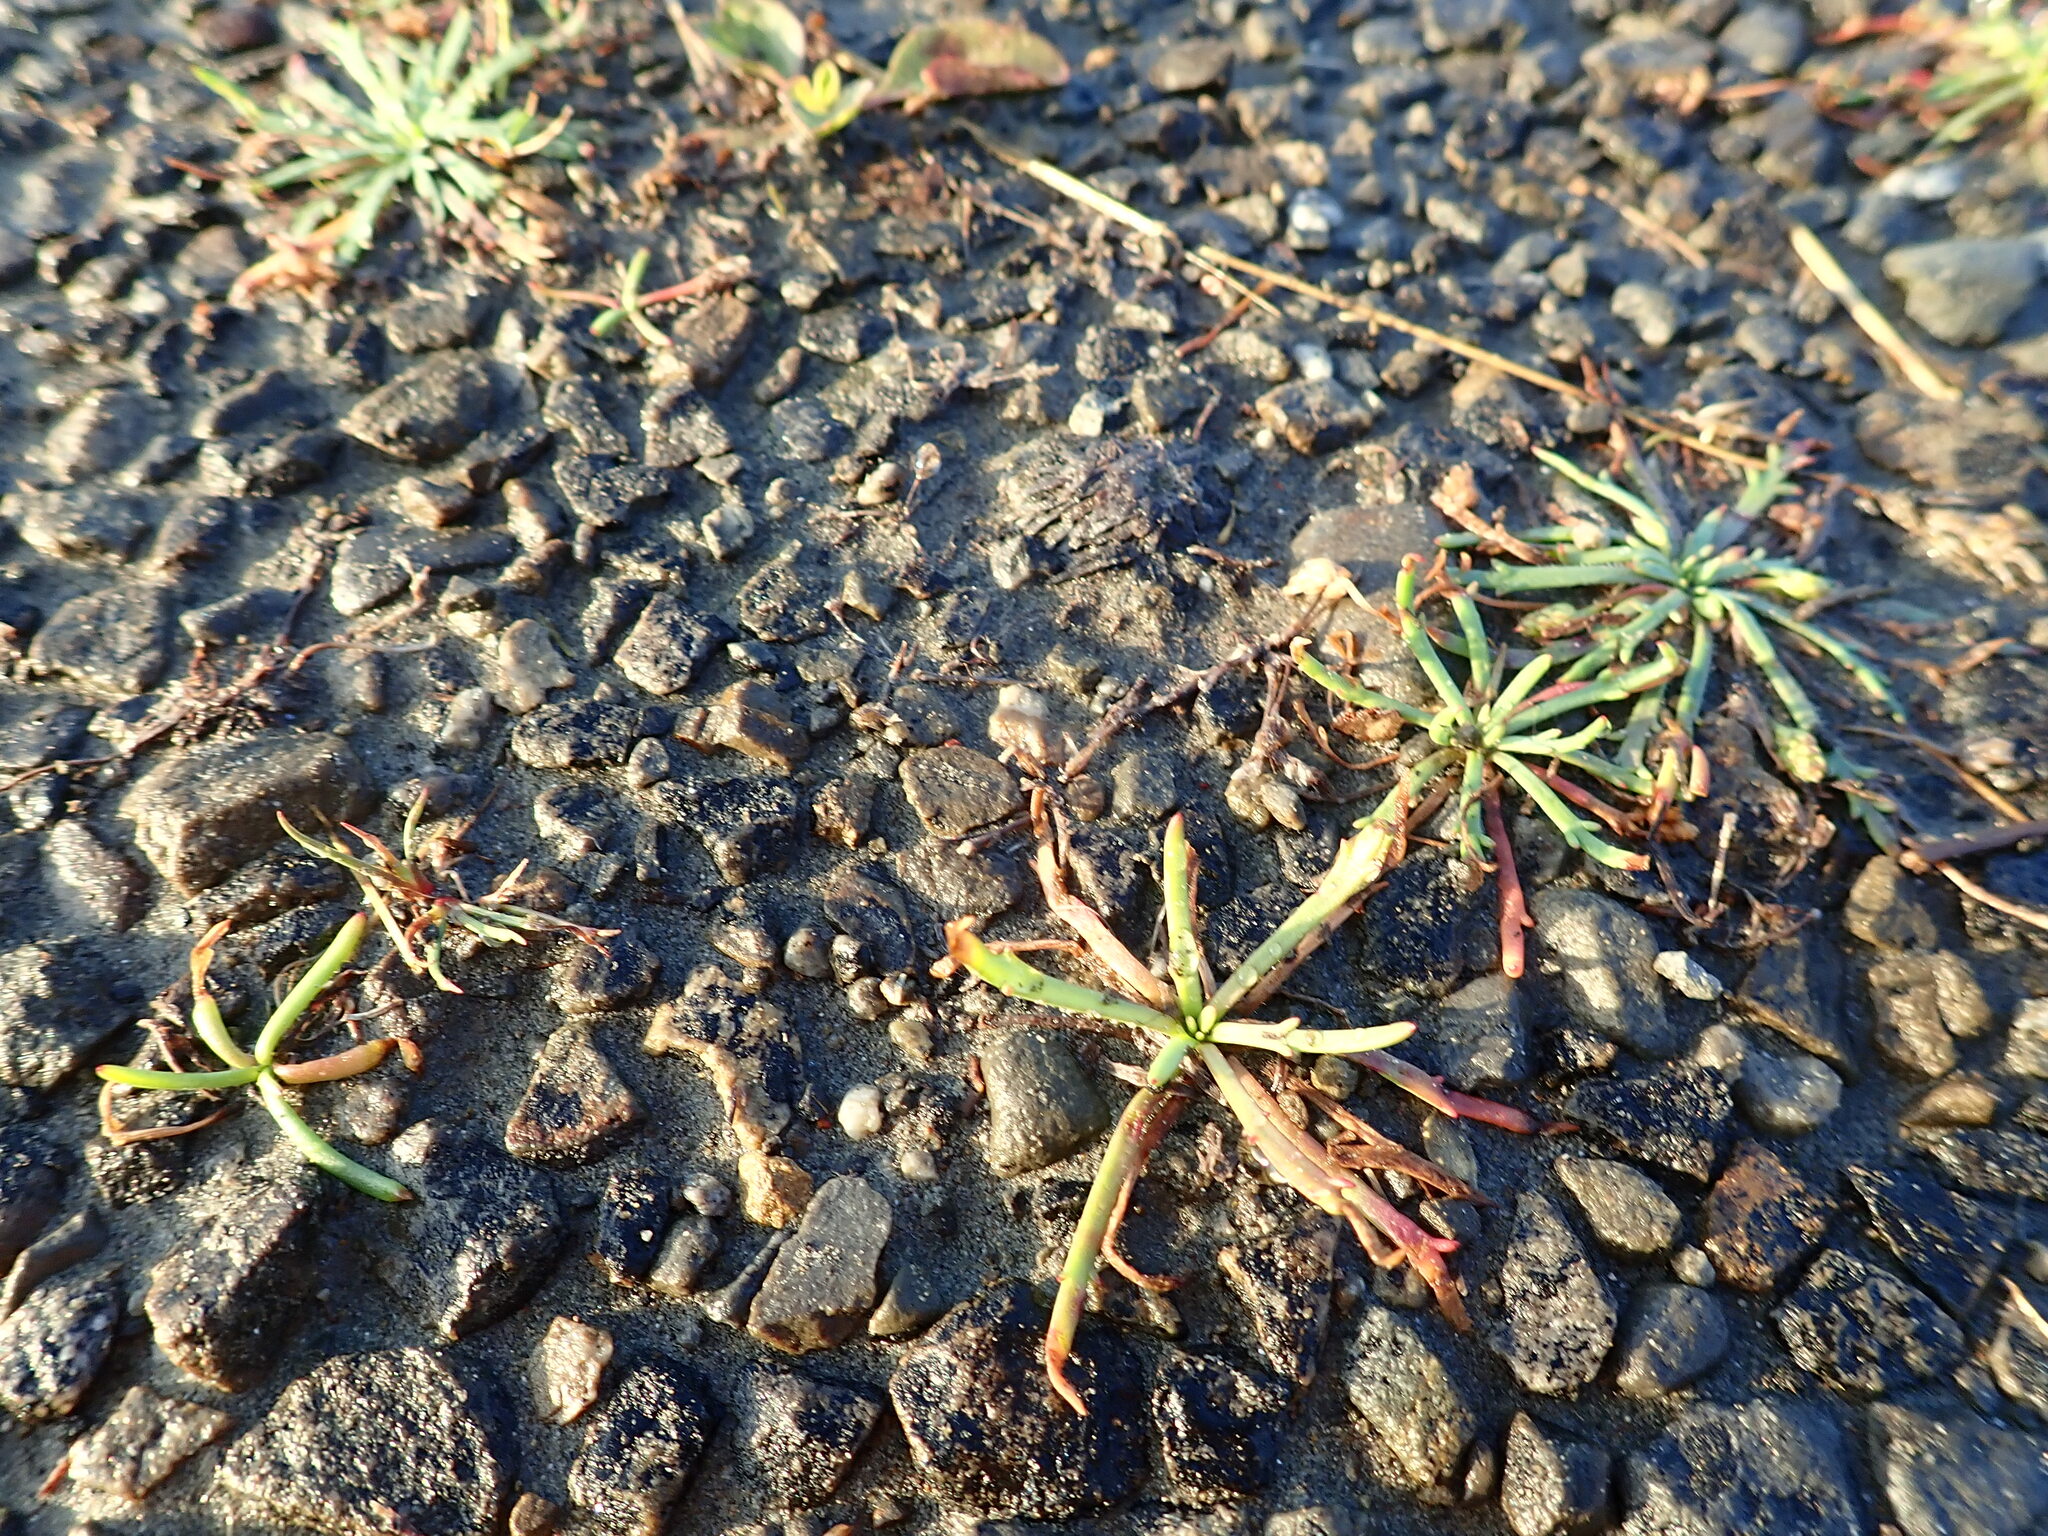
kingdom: Plantae
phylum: Tracheophyta
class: Magnoliopsida
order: Lamiales
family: Plantaginaceae
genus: Plantago
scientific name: Plantago coronopus
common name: Buck's-horn plantain
